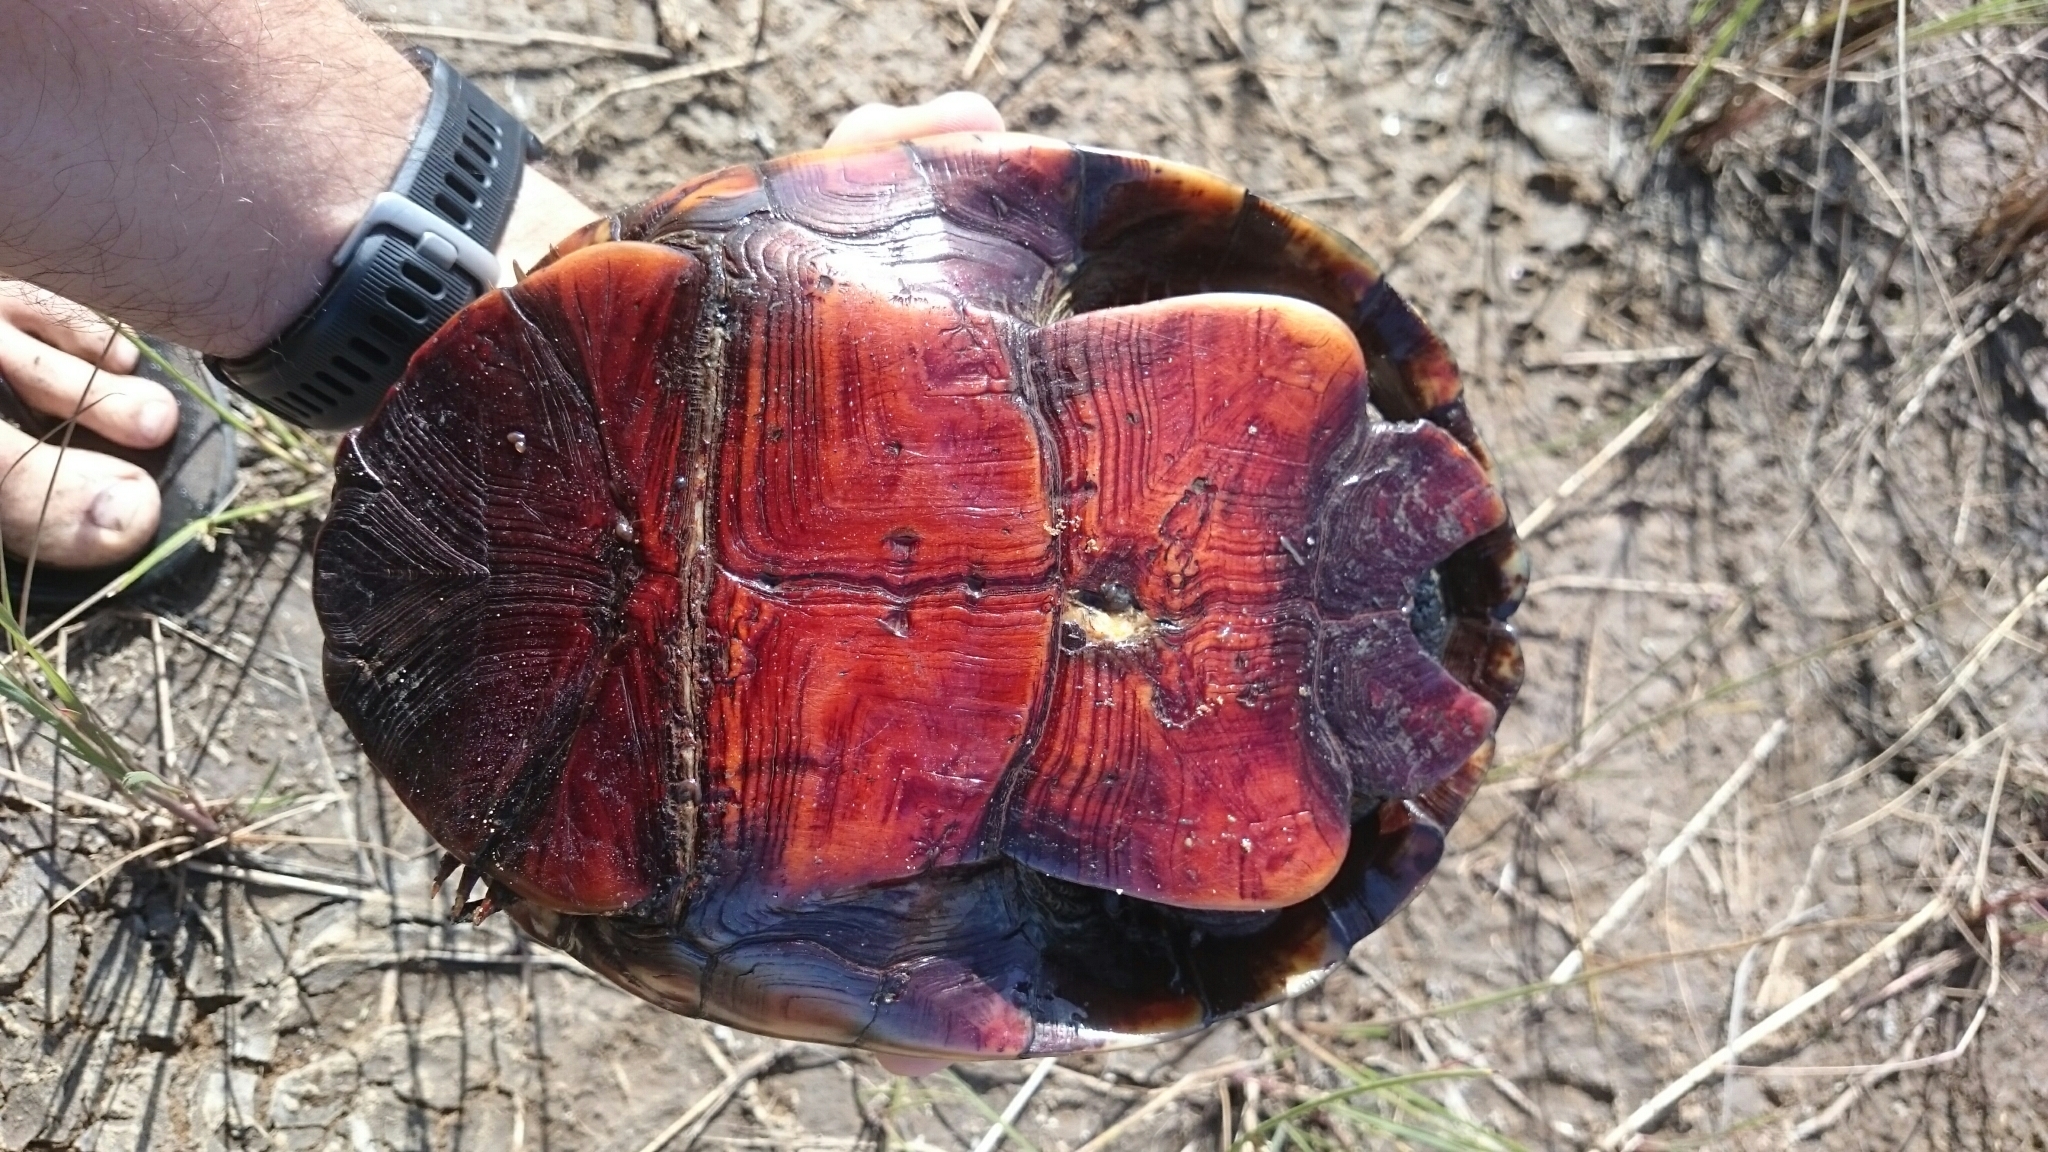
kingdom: Animalia
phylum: Chordata
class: Testudines
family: Pelomedusidae
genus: Pelusios
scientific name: Pelusios subniger
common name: East african black mud turtle
